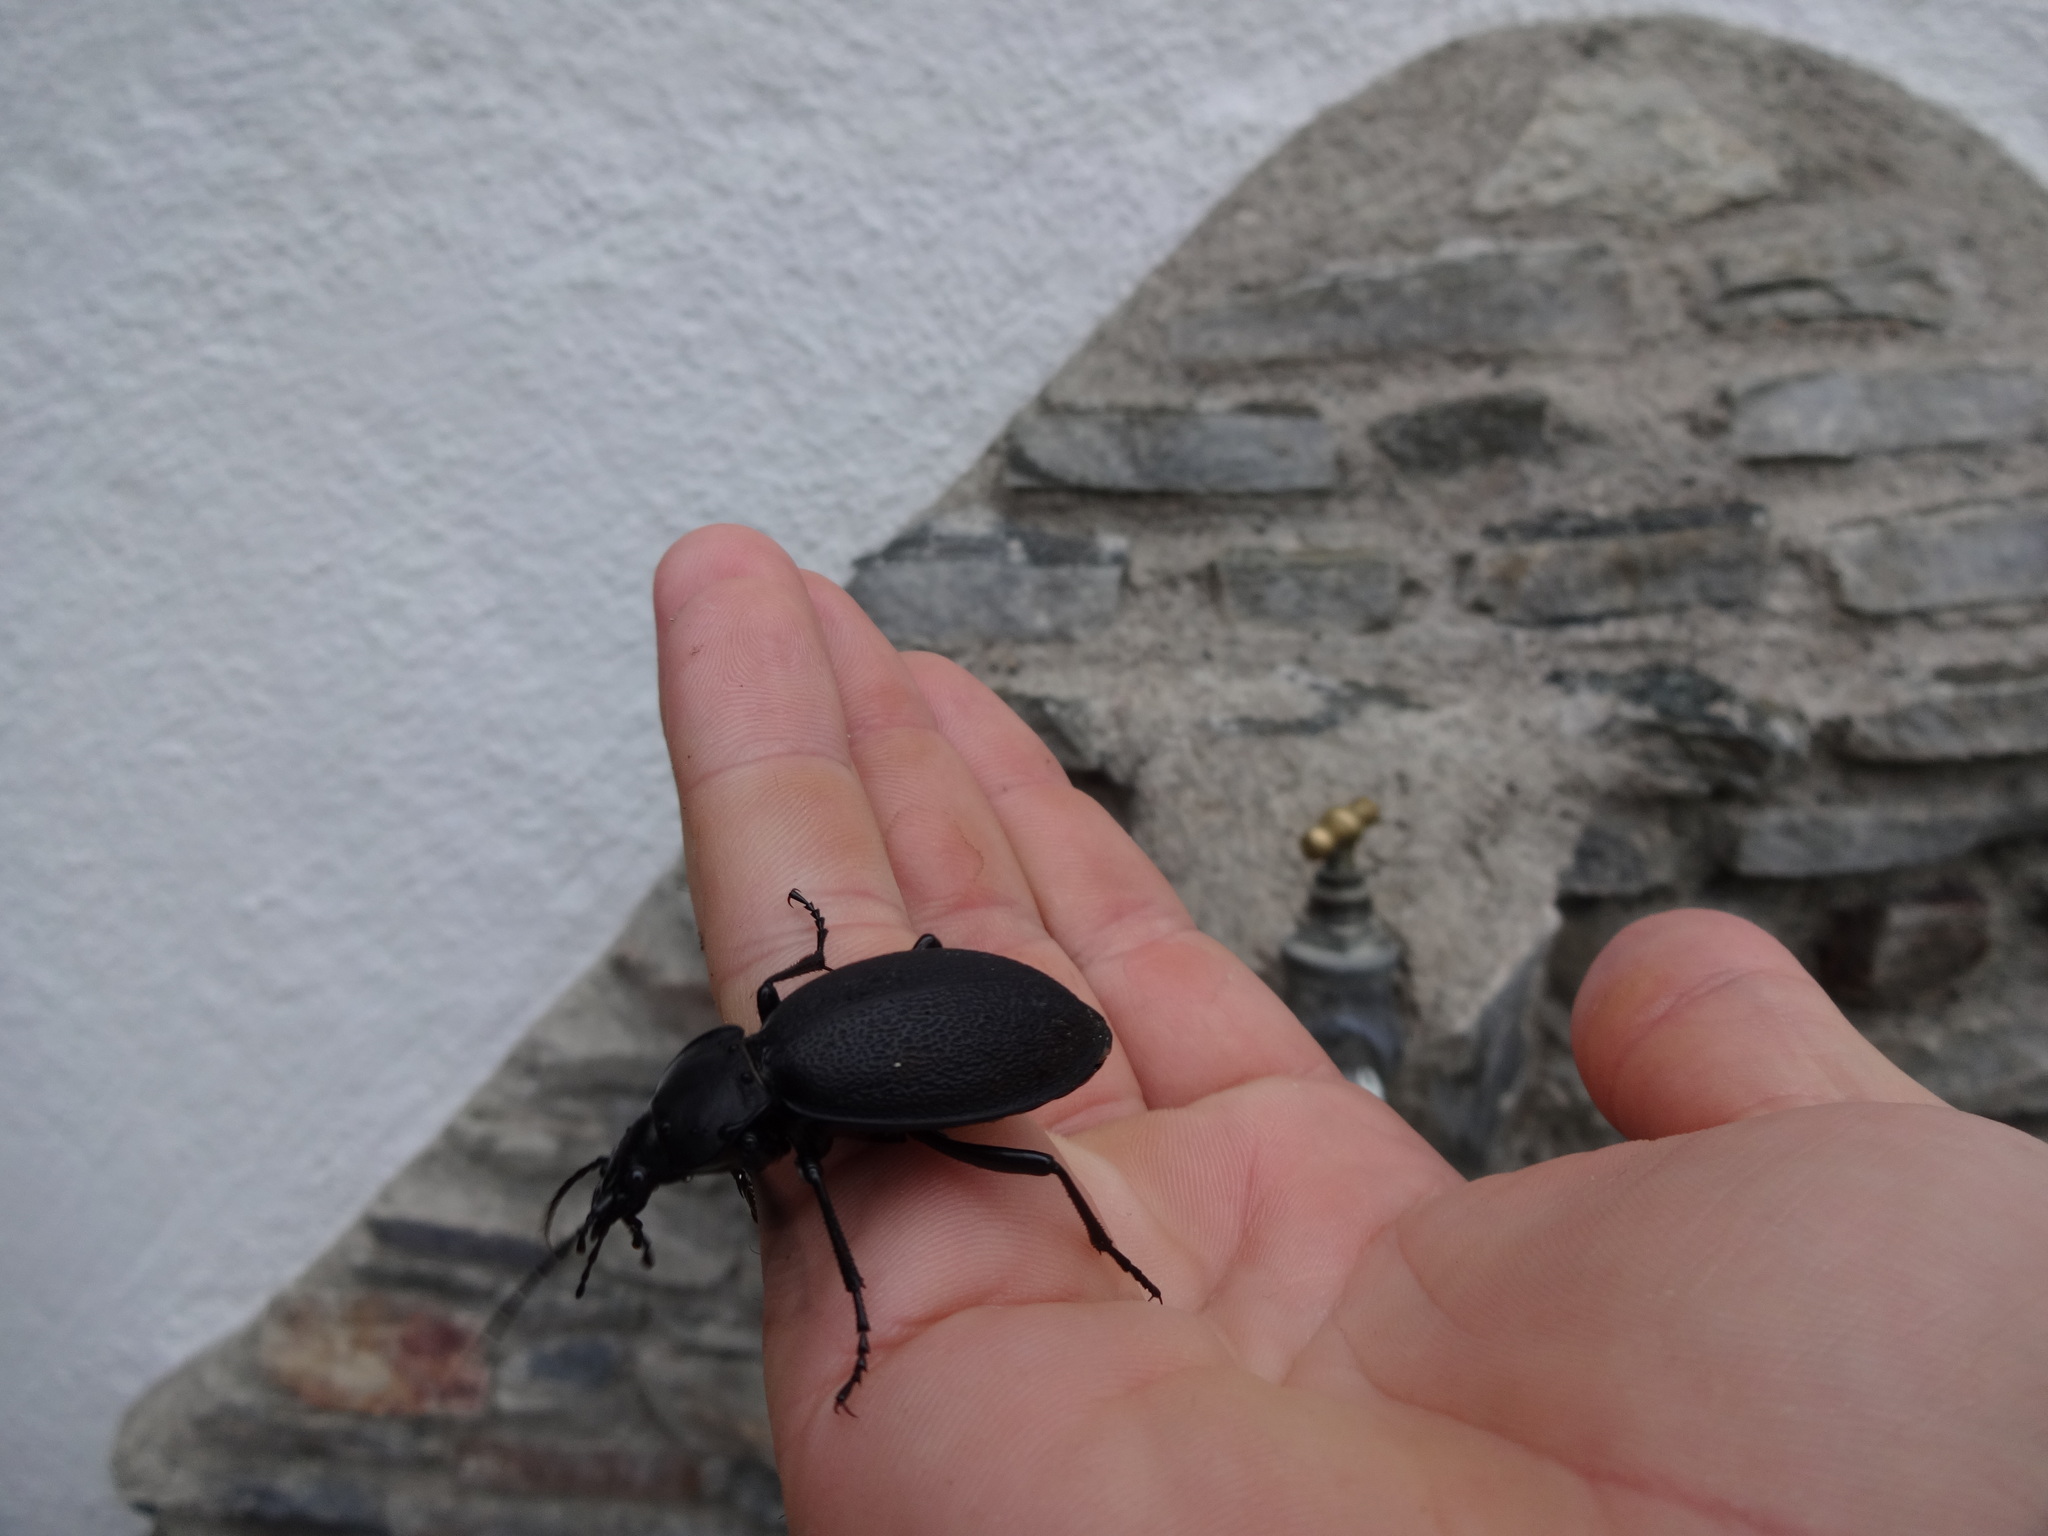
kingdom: Animalia
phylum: Arthropoda
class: Insecta
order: Coleoptera
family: Carabidae
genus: Carabus
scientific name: Carabus coriaceus
